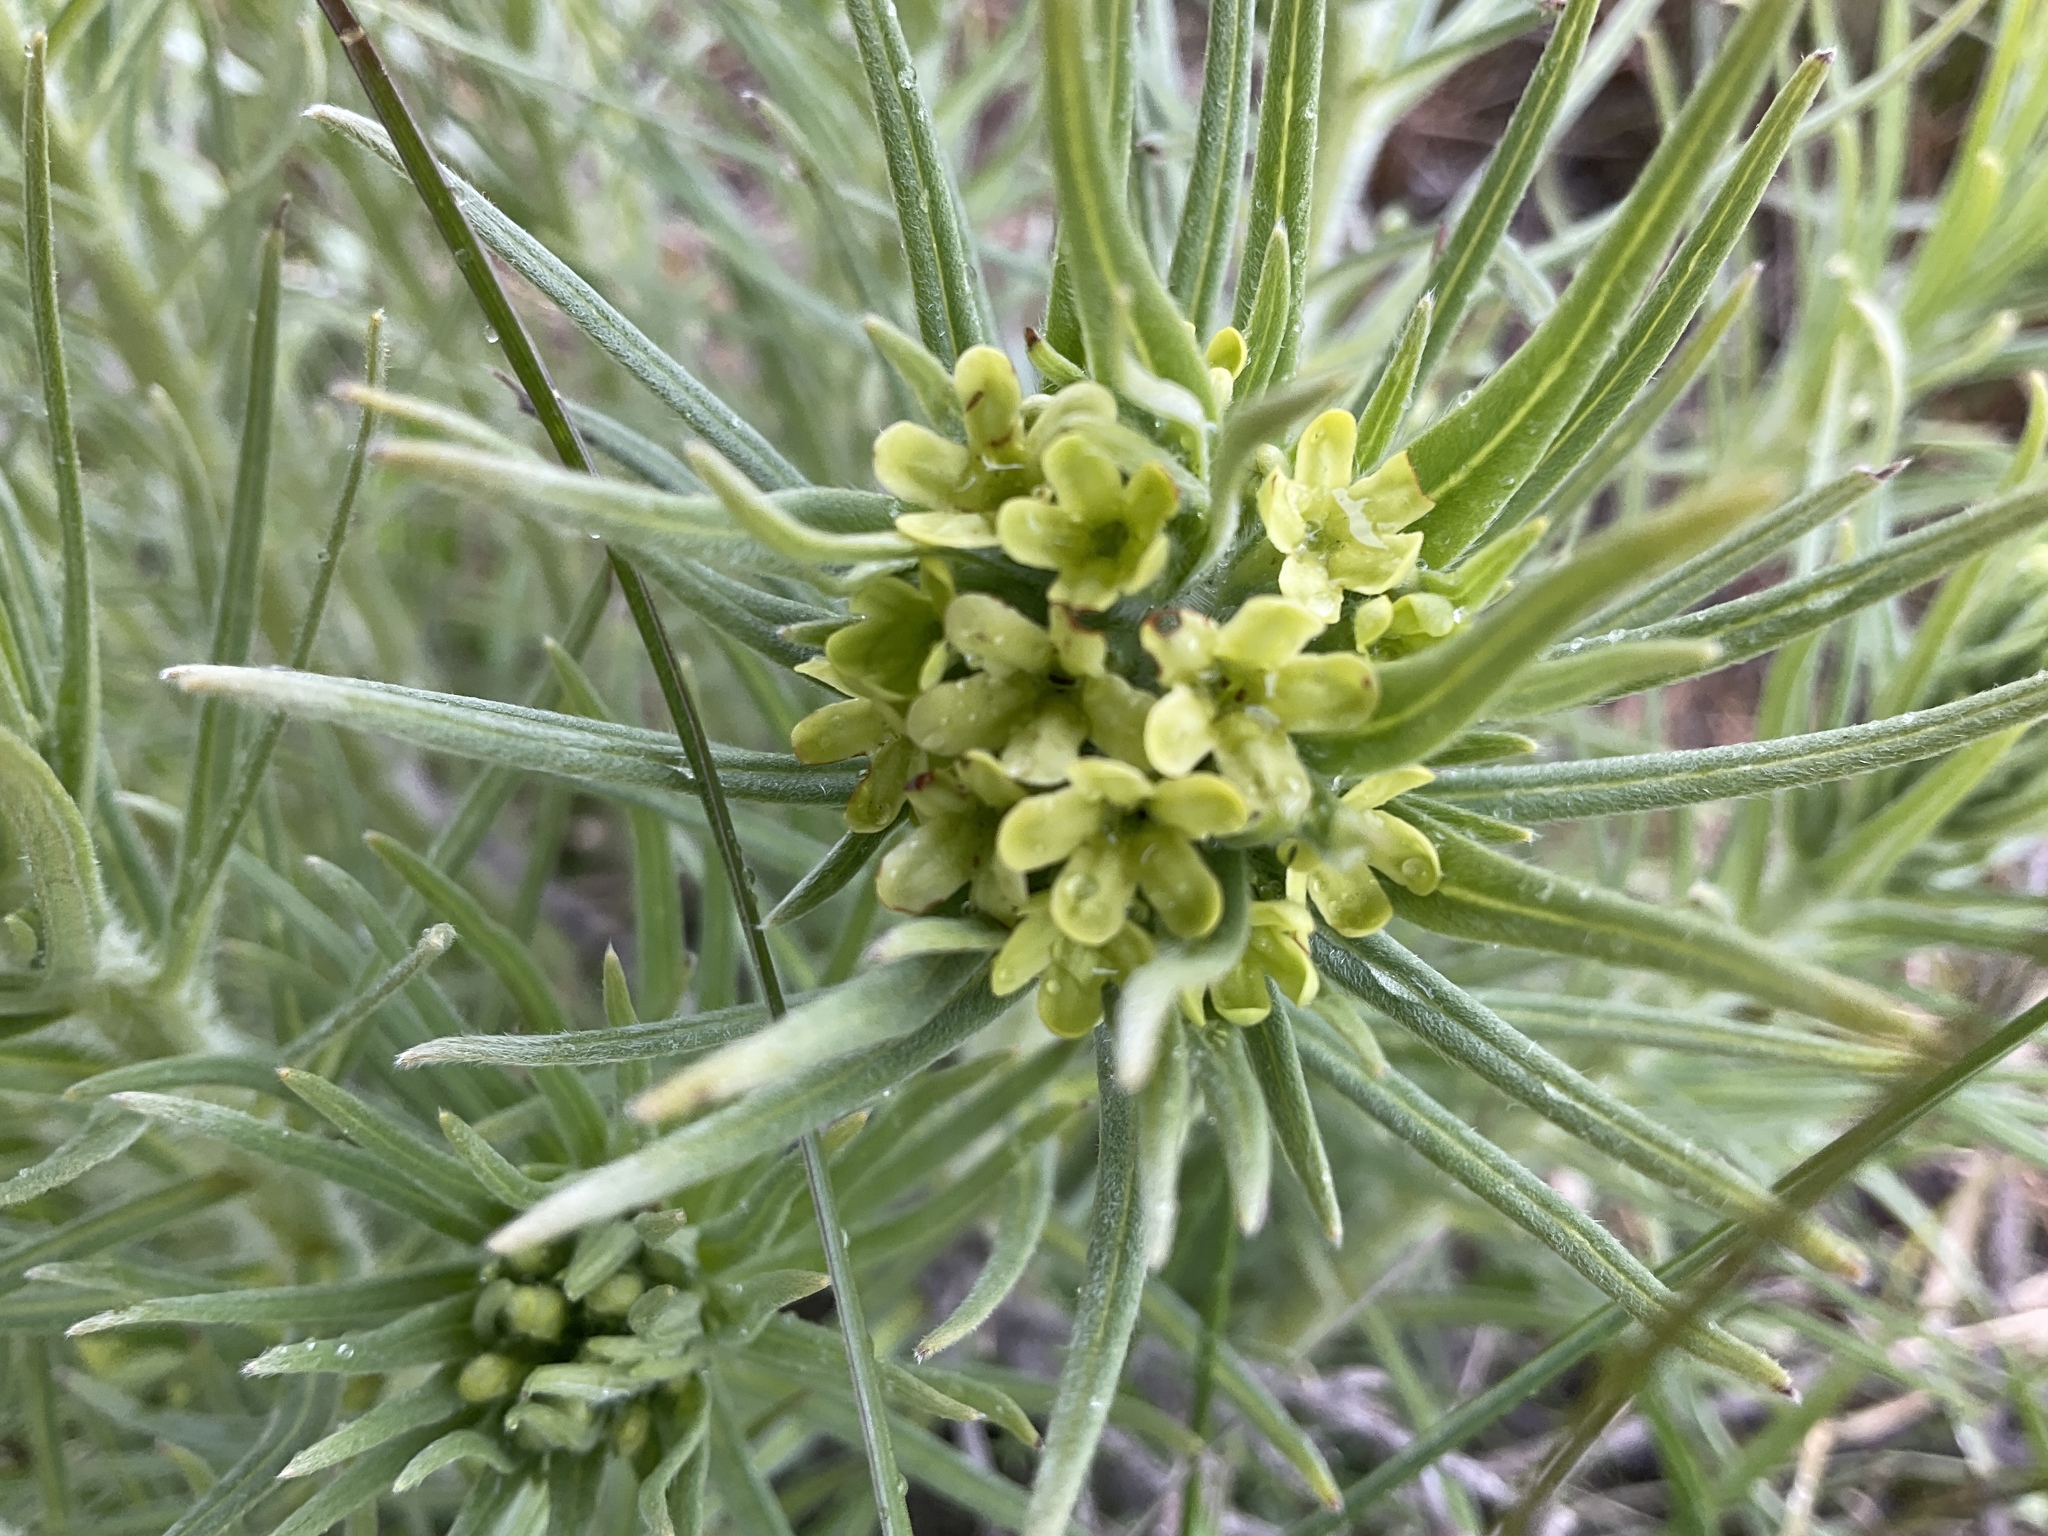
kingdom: Plantae
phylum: Tracheophyta
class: Magnoliopsida
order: Boraginales
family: Boraginaceae
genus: Lithospermum
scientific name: Lithospermum ruderale
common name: Western gromwell
